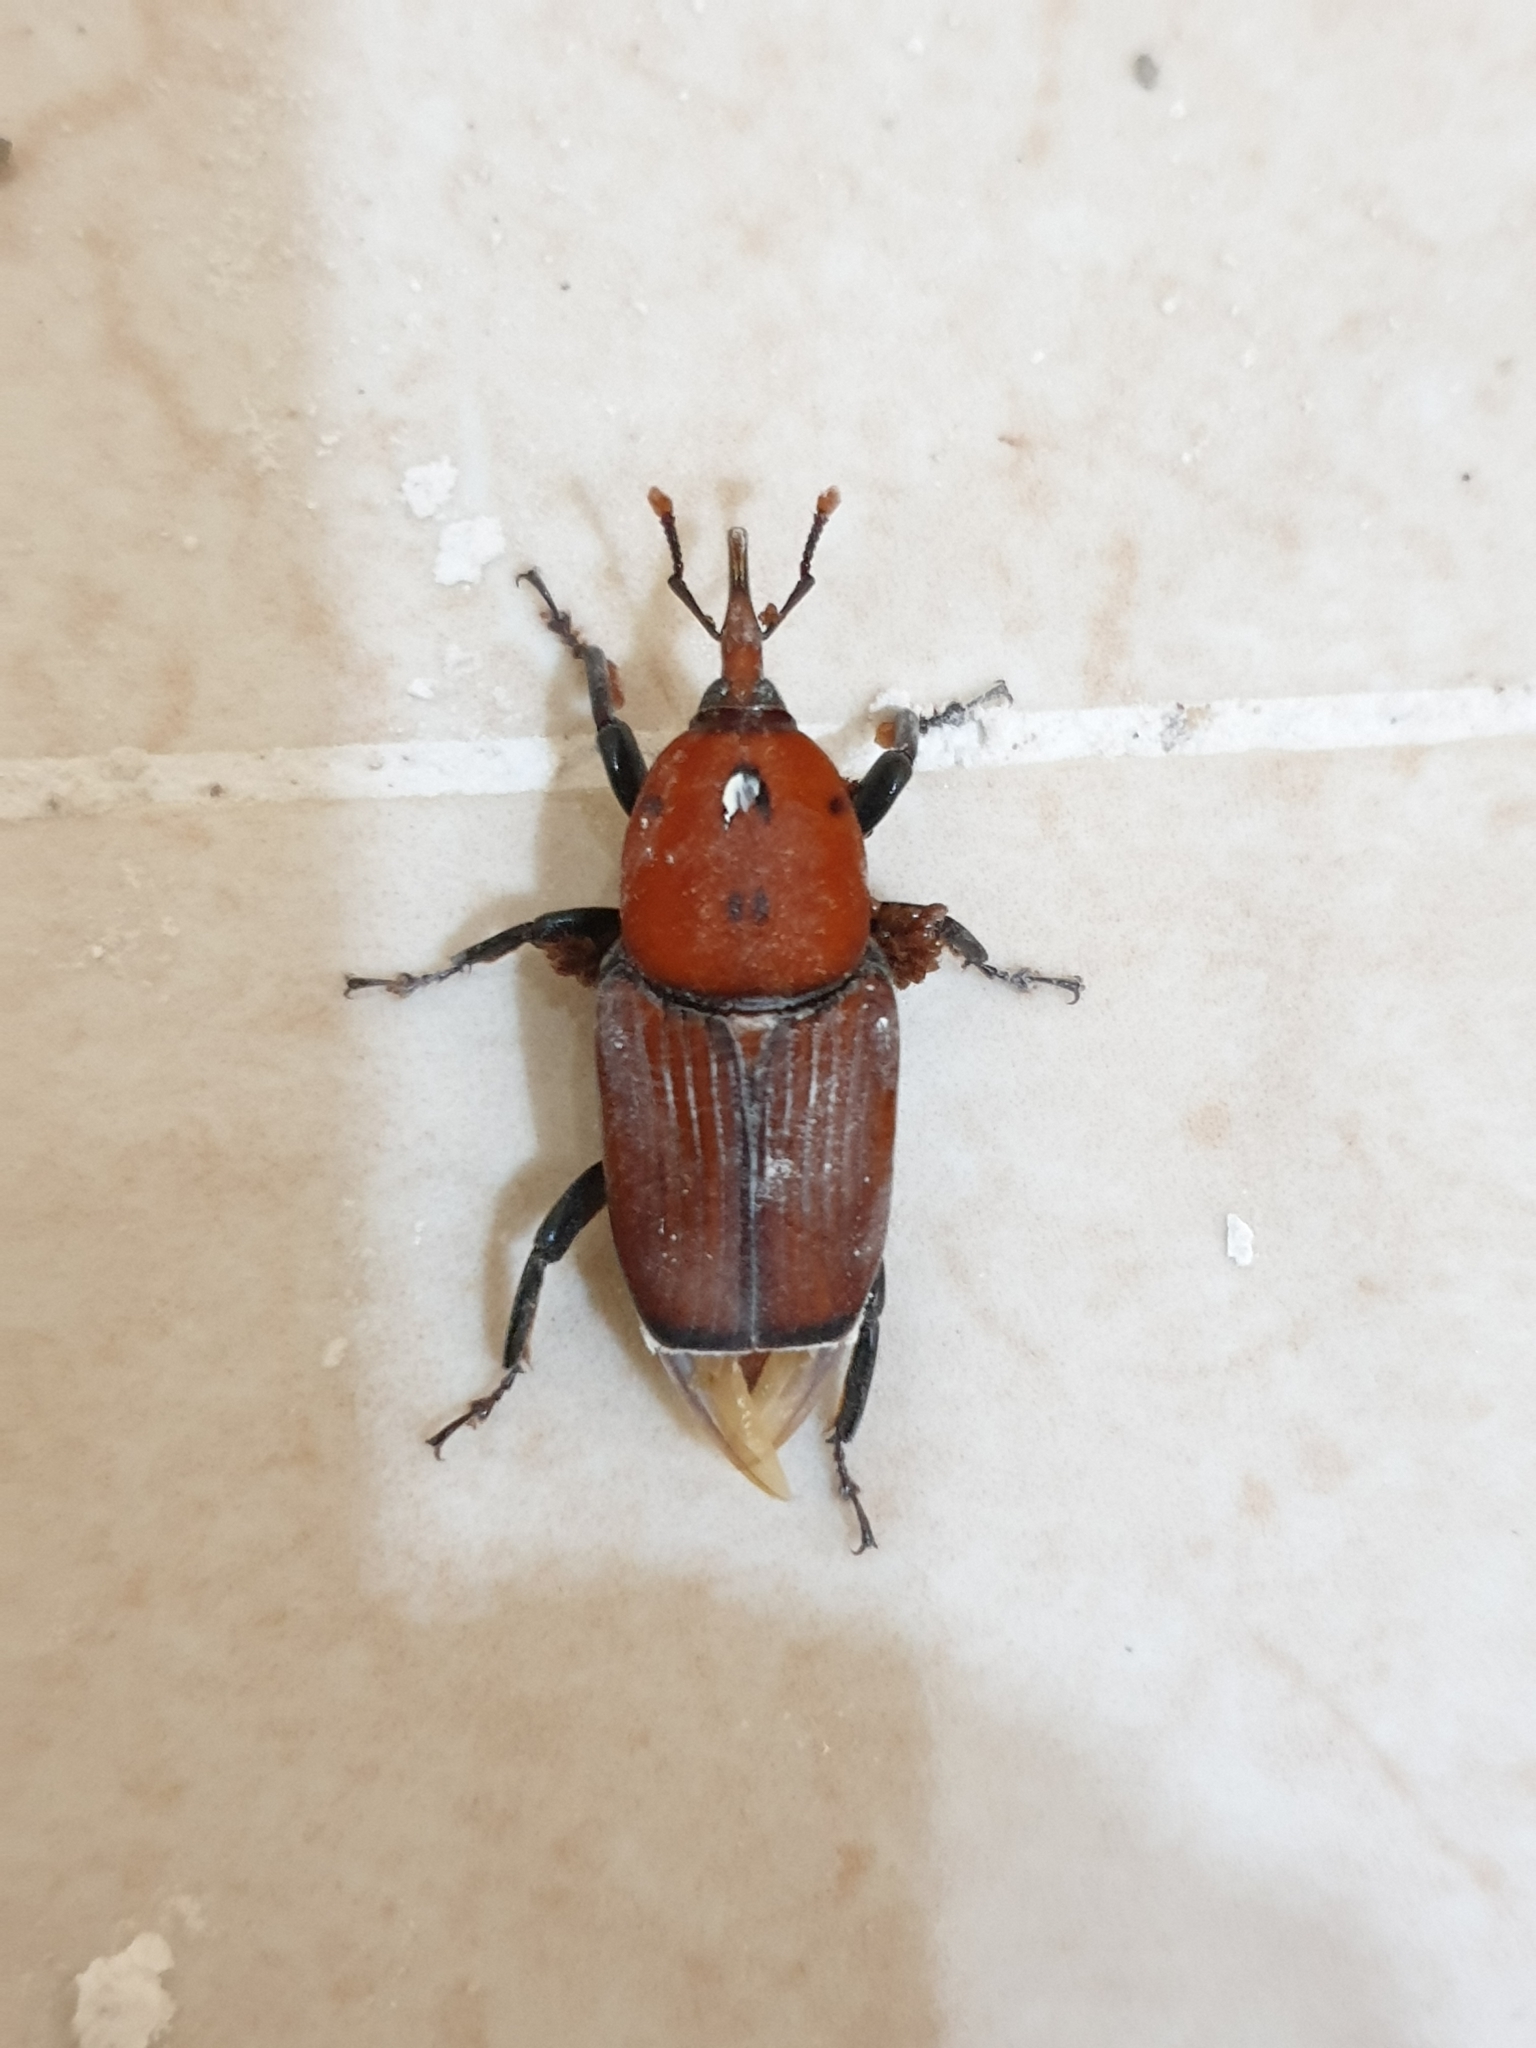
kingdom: Animalia
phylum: Arthropoda
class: Insecta
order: Coleoptera
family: Dryophthoridae
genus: Rhynchophorus
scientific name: Rhynchophorus ferrugineus
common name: Red palm weevil
